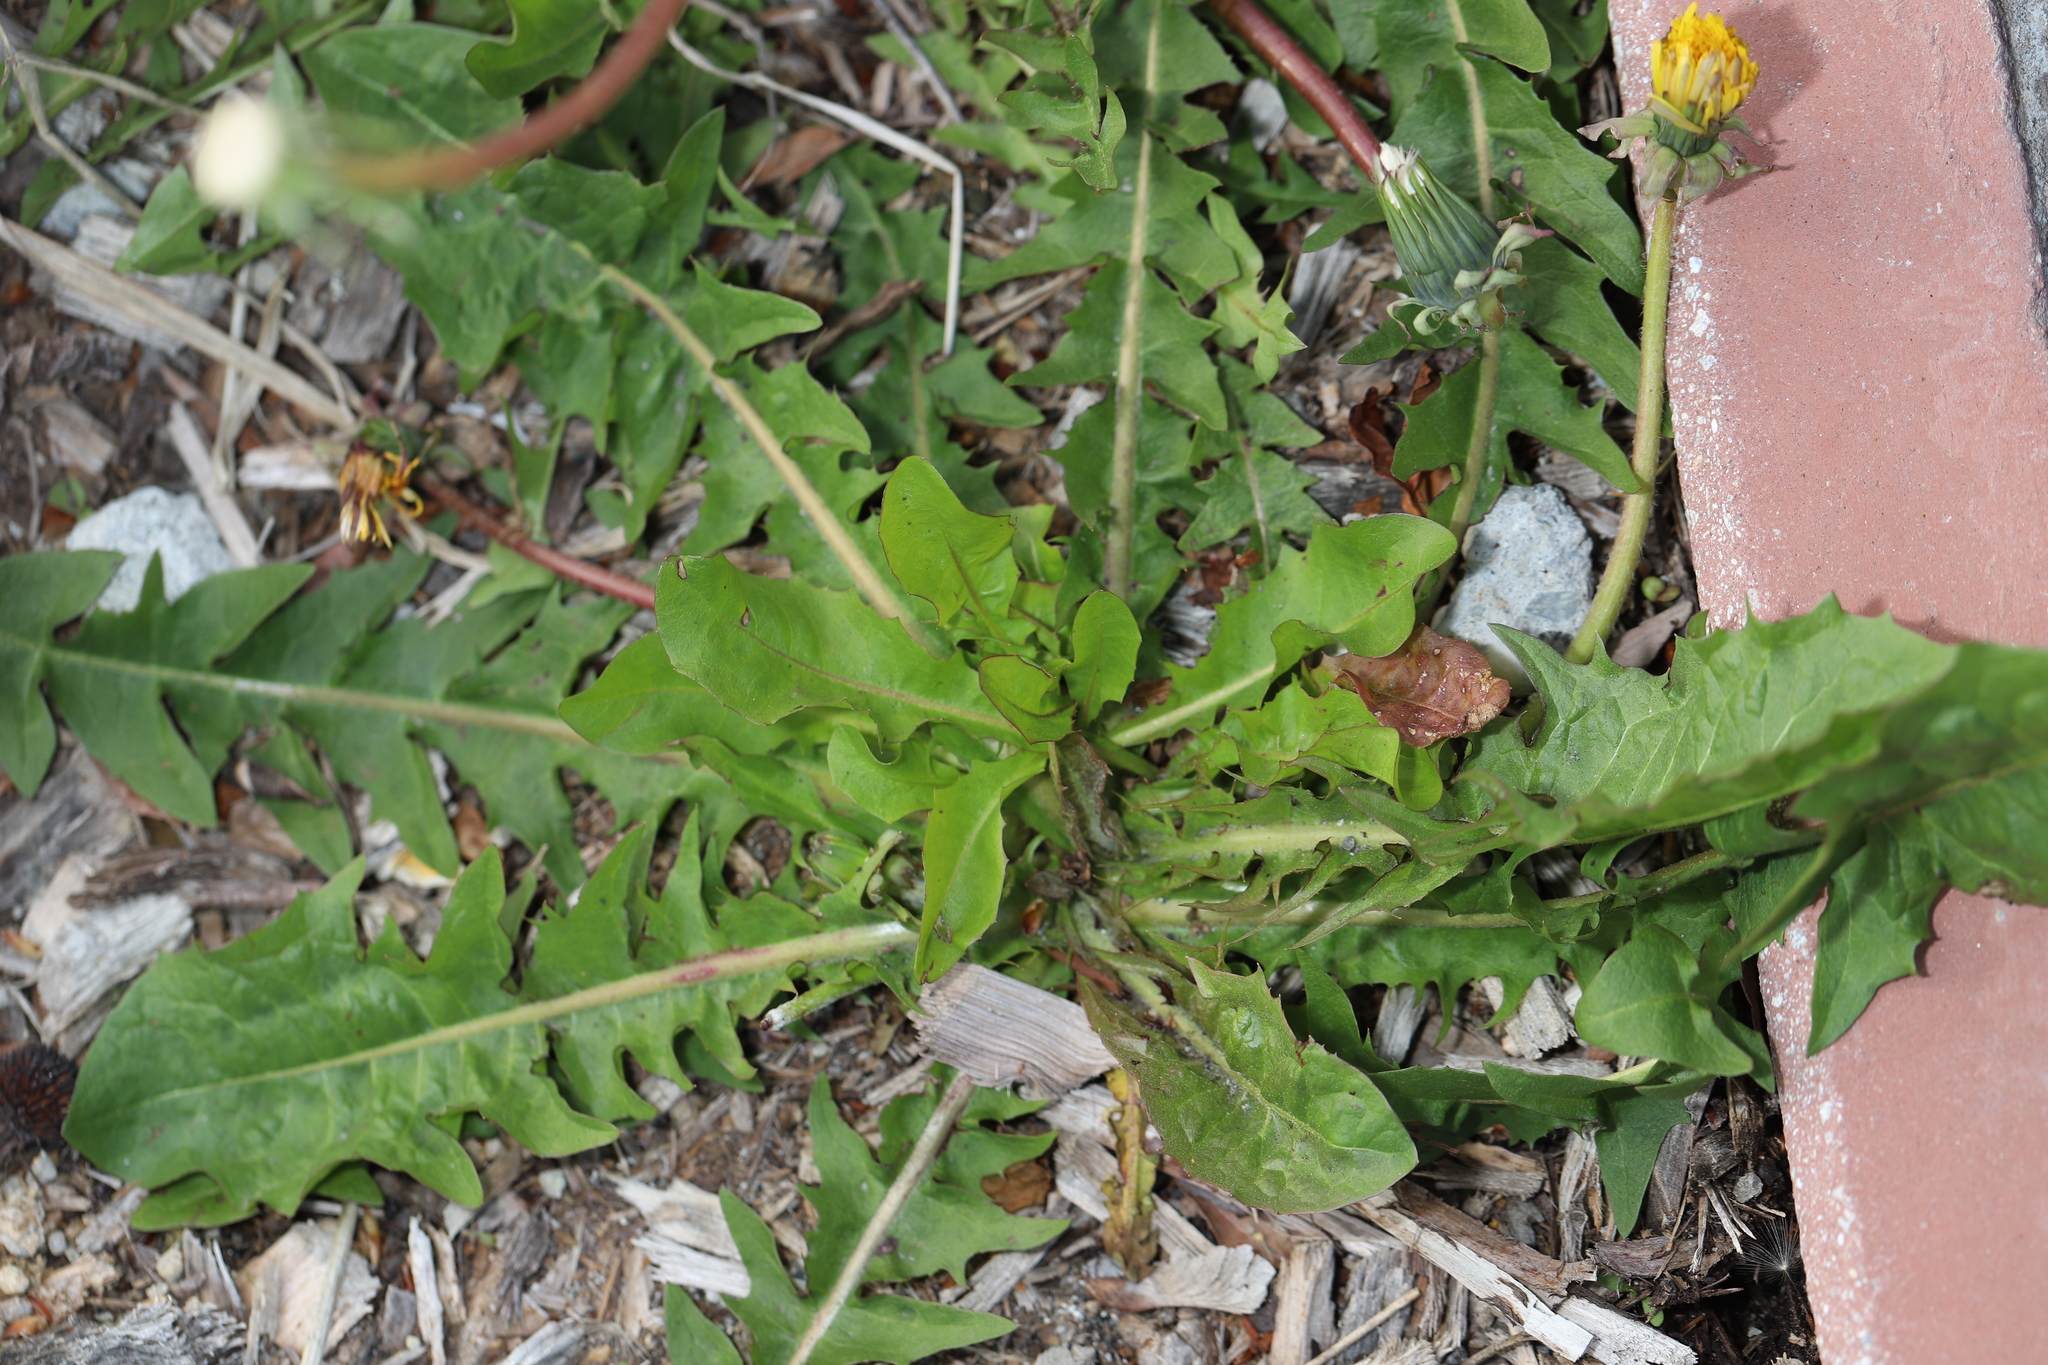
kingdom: Plantae
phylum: Tracheophyta
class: Magnoliopsida
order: Asterales
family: Asteraceae
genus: Taraxacum
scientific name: Taraxacum officinale
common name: Common dandelion
